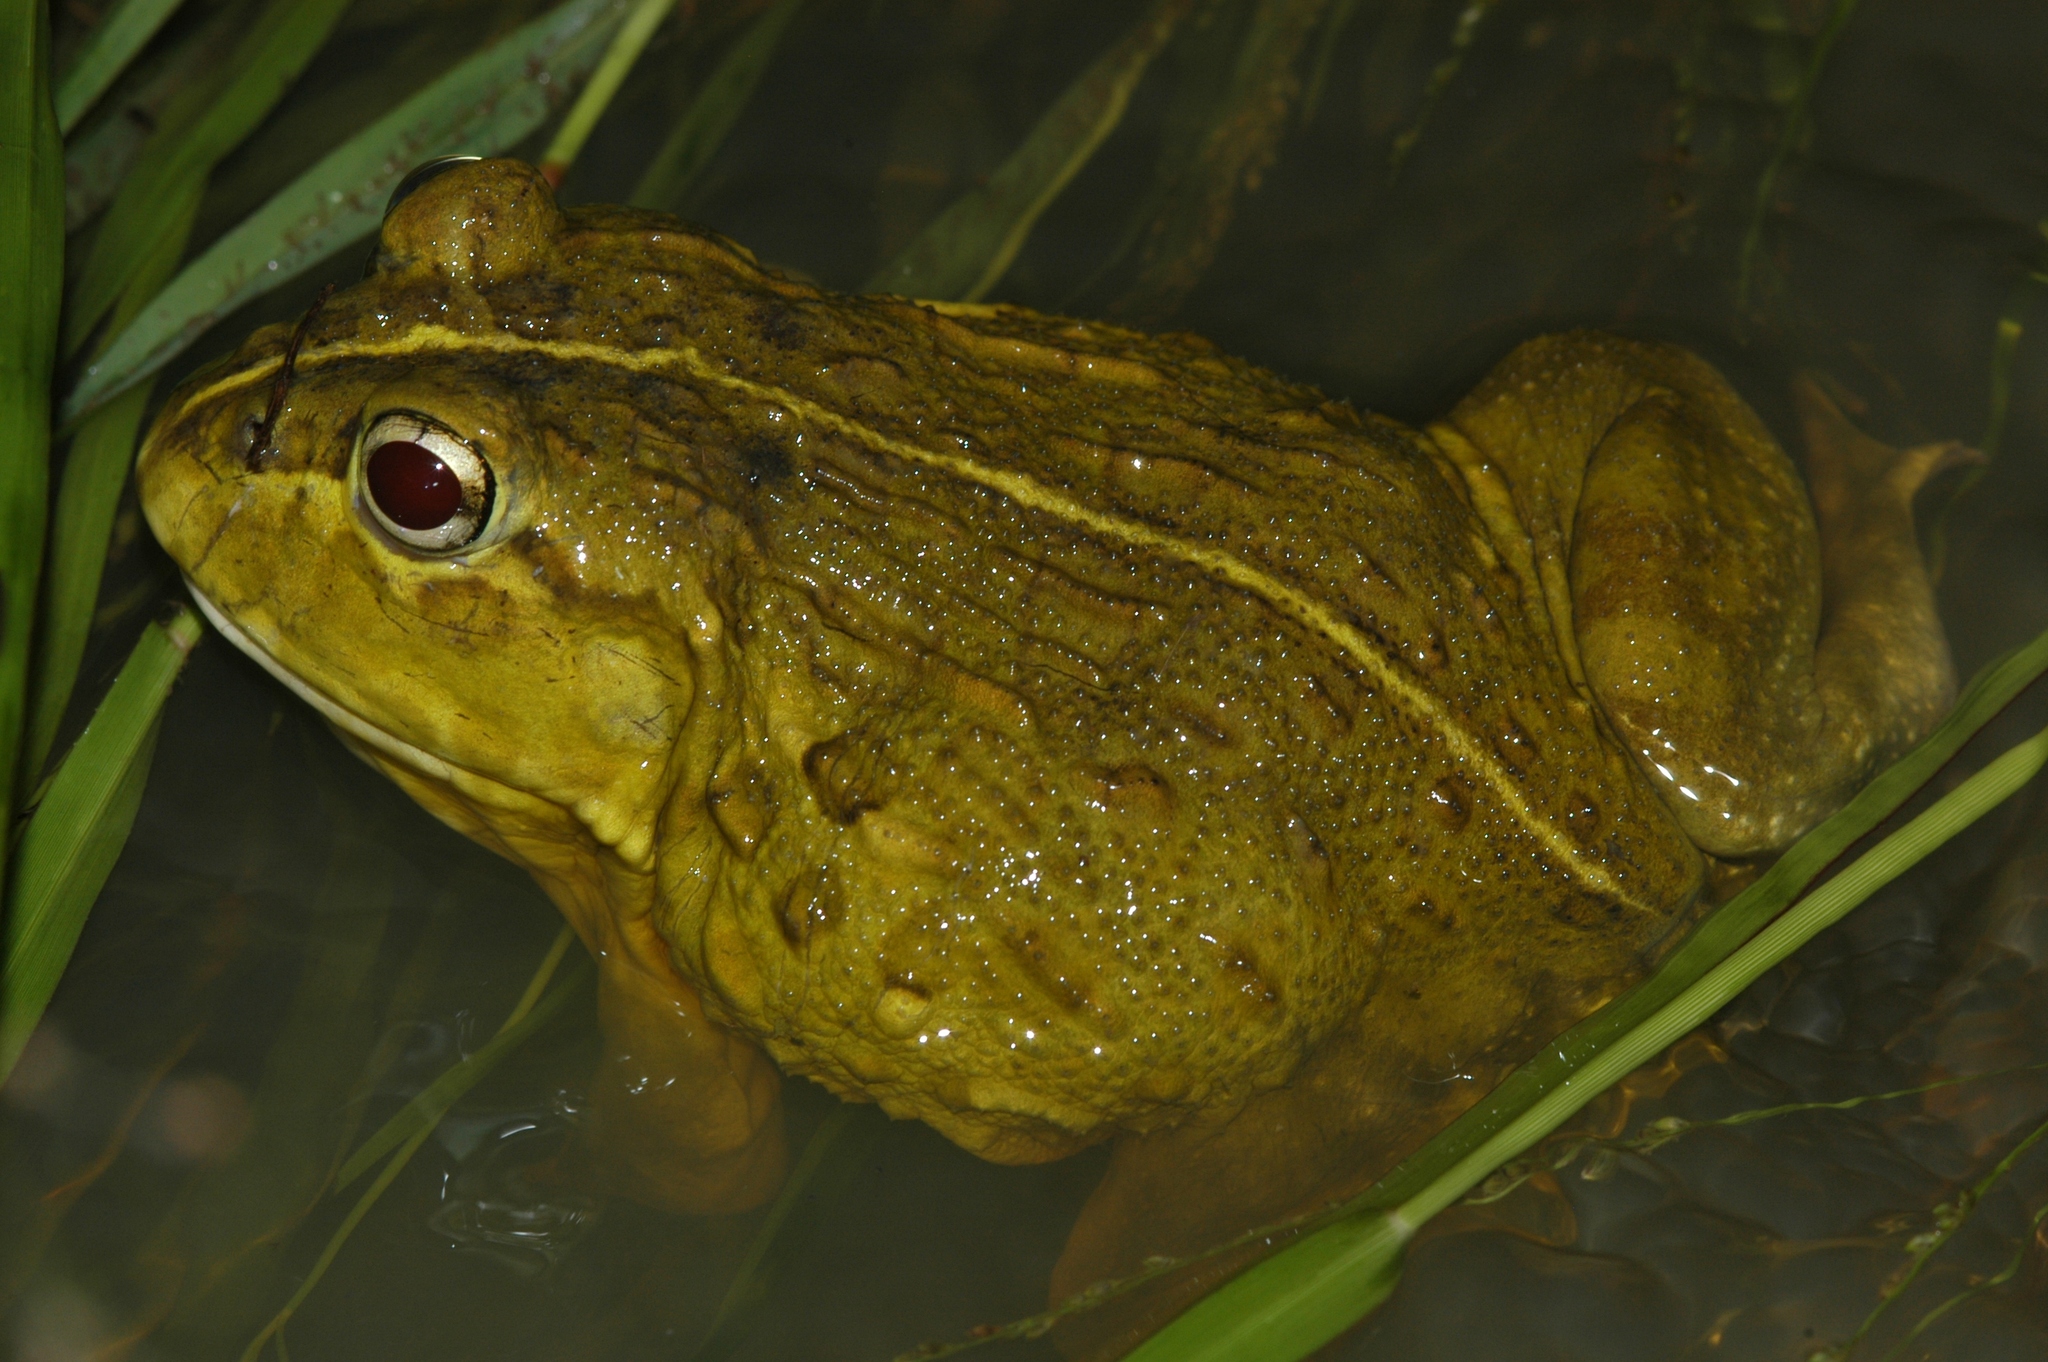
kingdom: Animalia
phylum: Chordata
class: Amphibia
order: Anura
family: Pyxicephalidae
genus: Pyxicephalus
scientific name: Pyxicephalus edulis
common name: Peter's bullfrog
